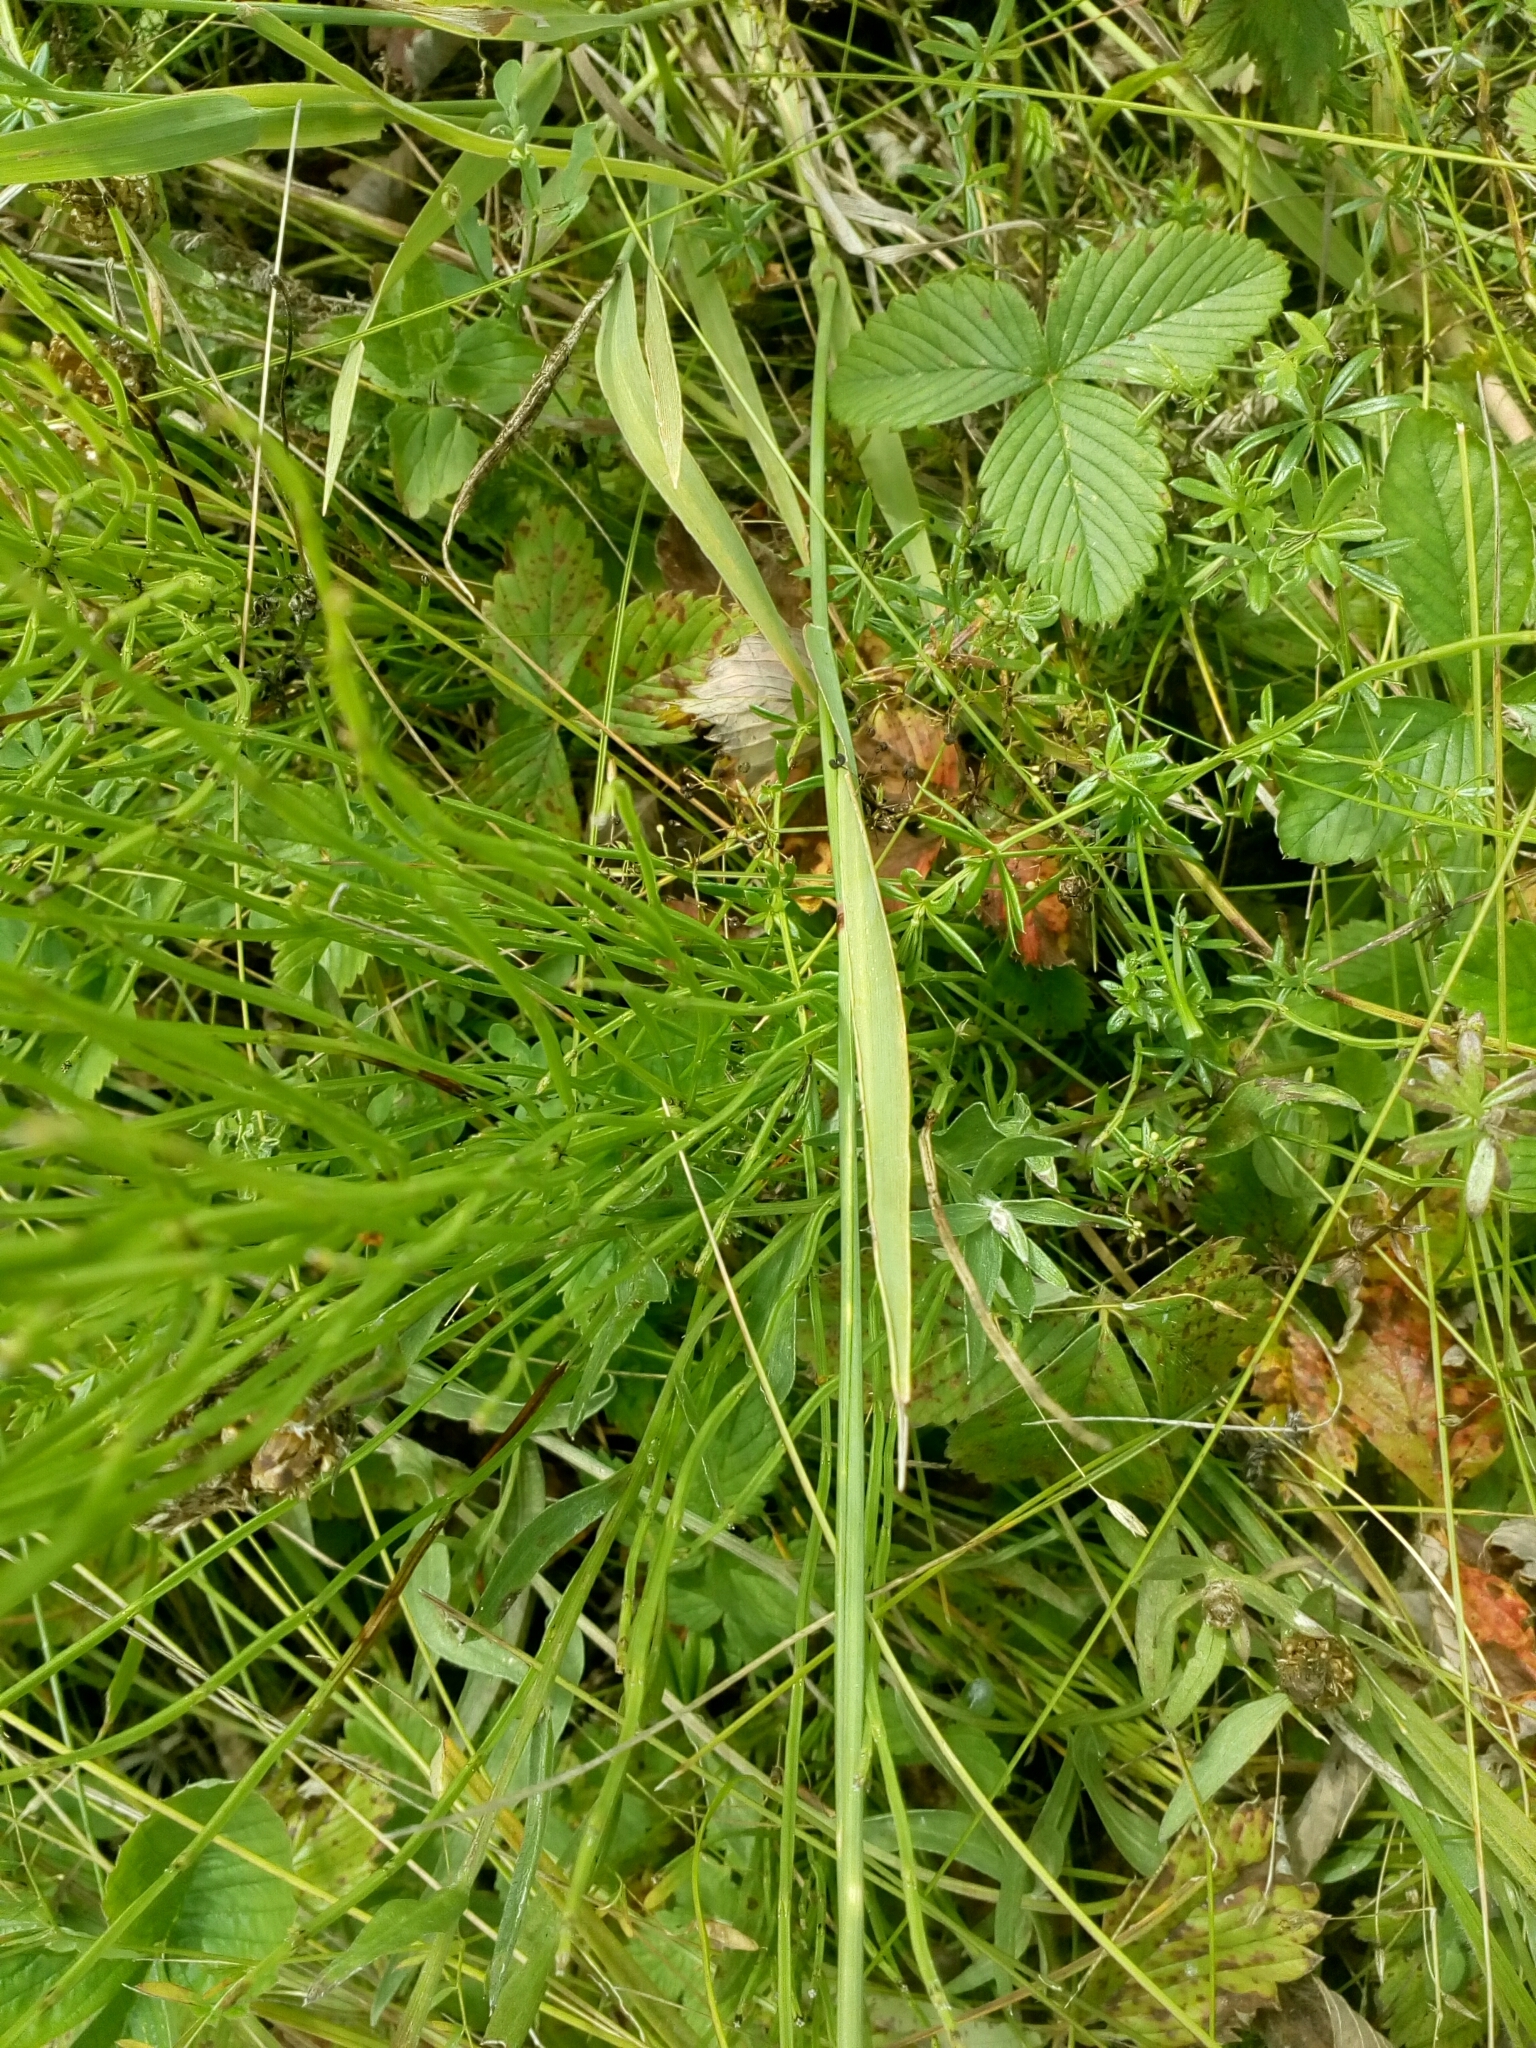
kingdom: Plantae
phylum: Tracheophyta
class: Liliopsida
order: Poales
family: Poaceae
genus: Phleum
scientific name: Phleum pratense
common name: Timothy grass
